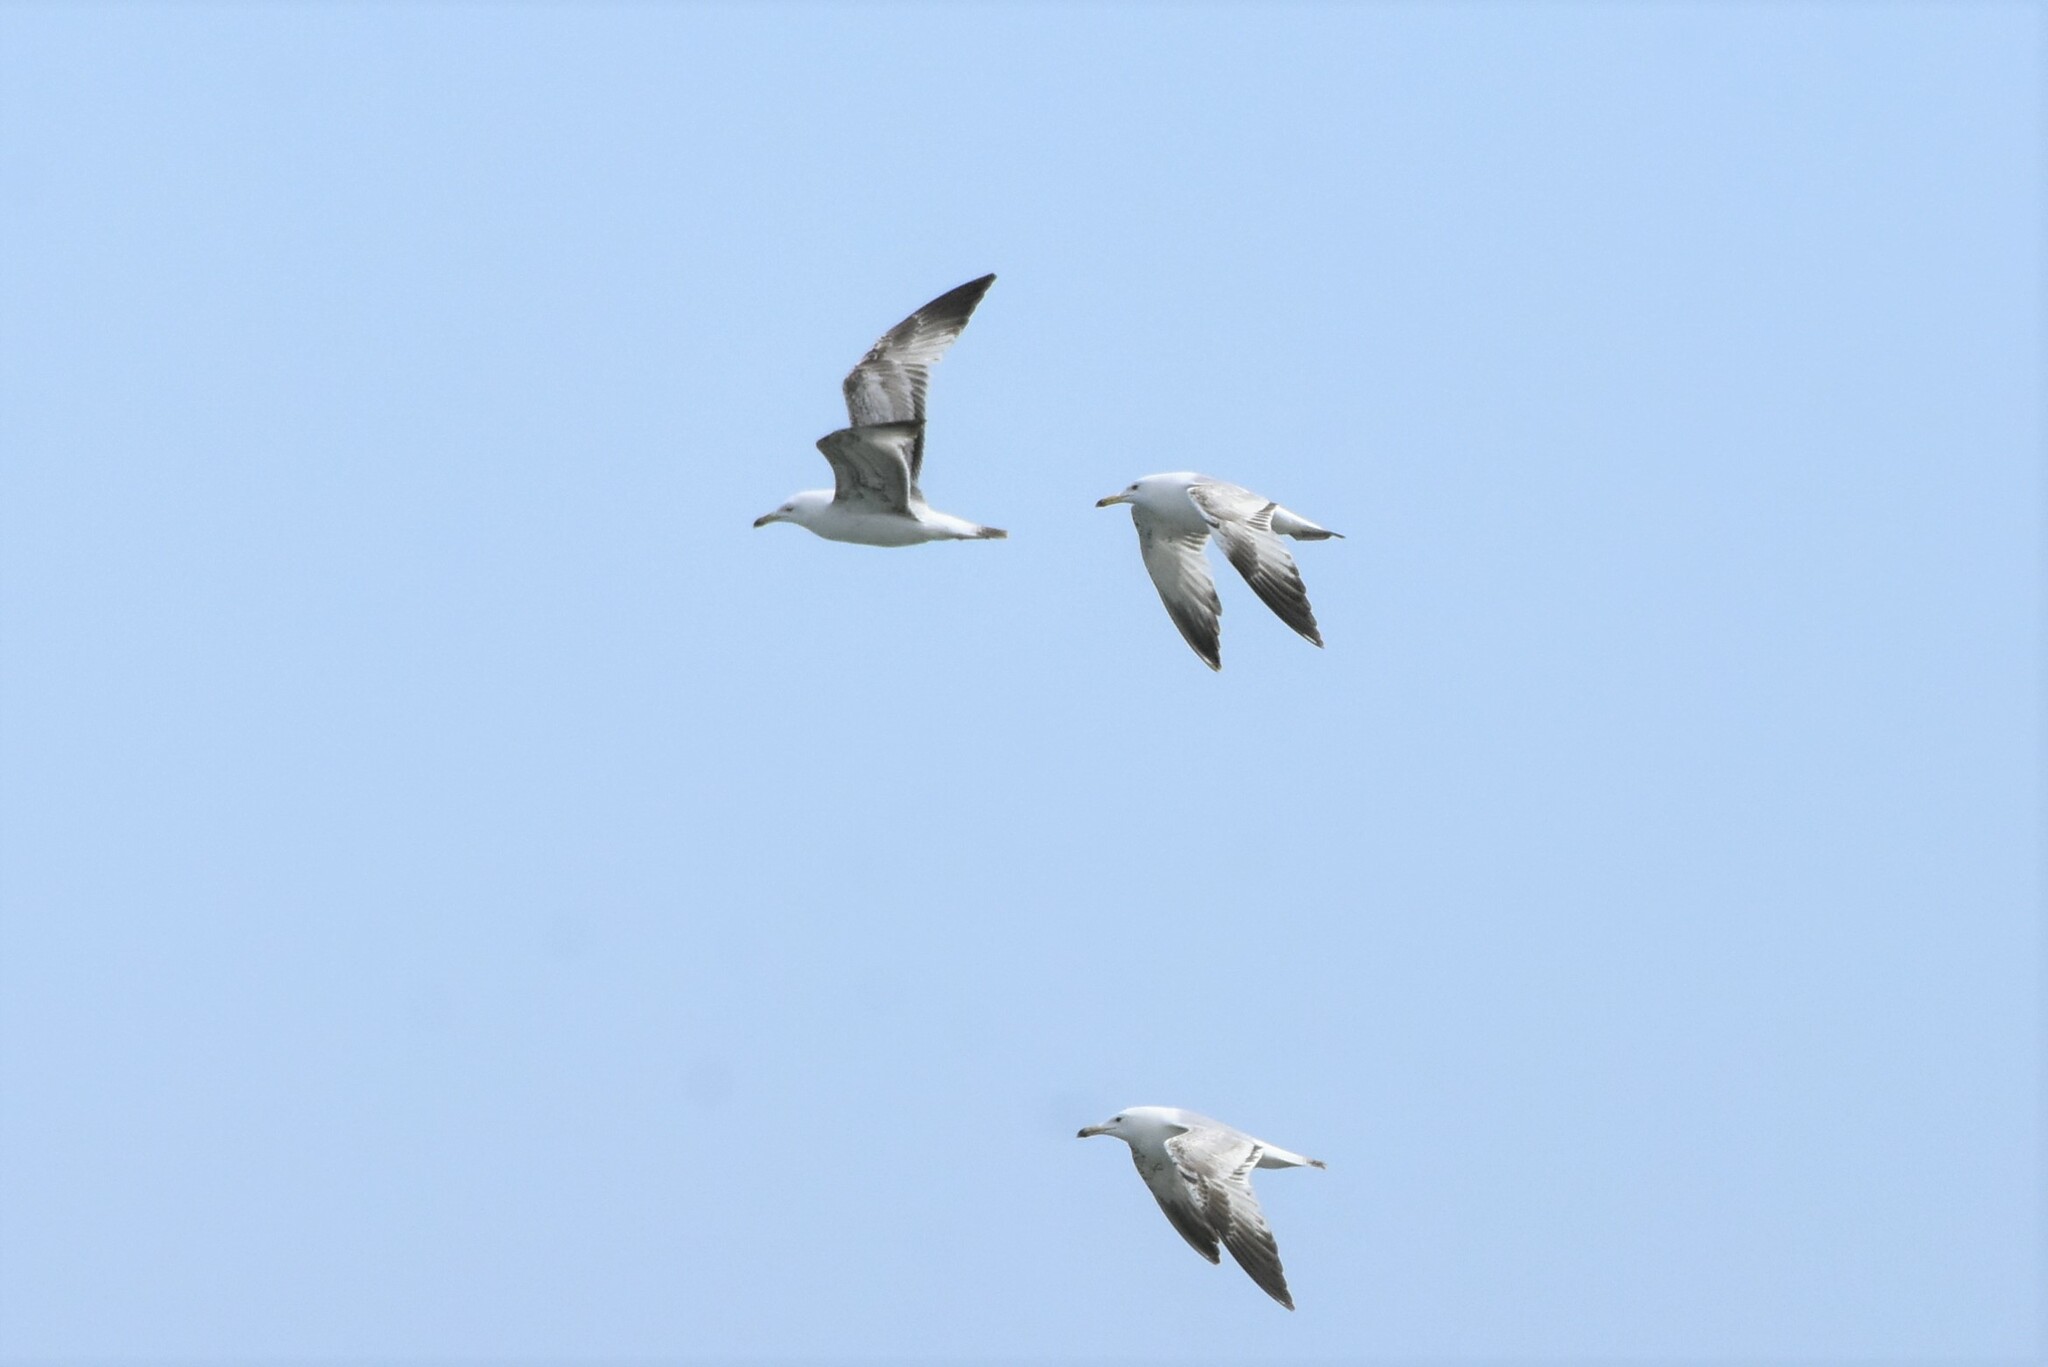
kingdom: Animalia
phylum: Chordata
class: Aves
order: Charadriiformes
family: Laridae
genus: Larus
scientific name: Larus cachinnans
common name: Caspian gull
